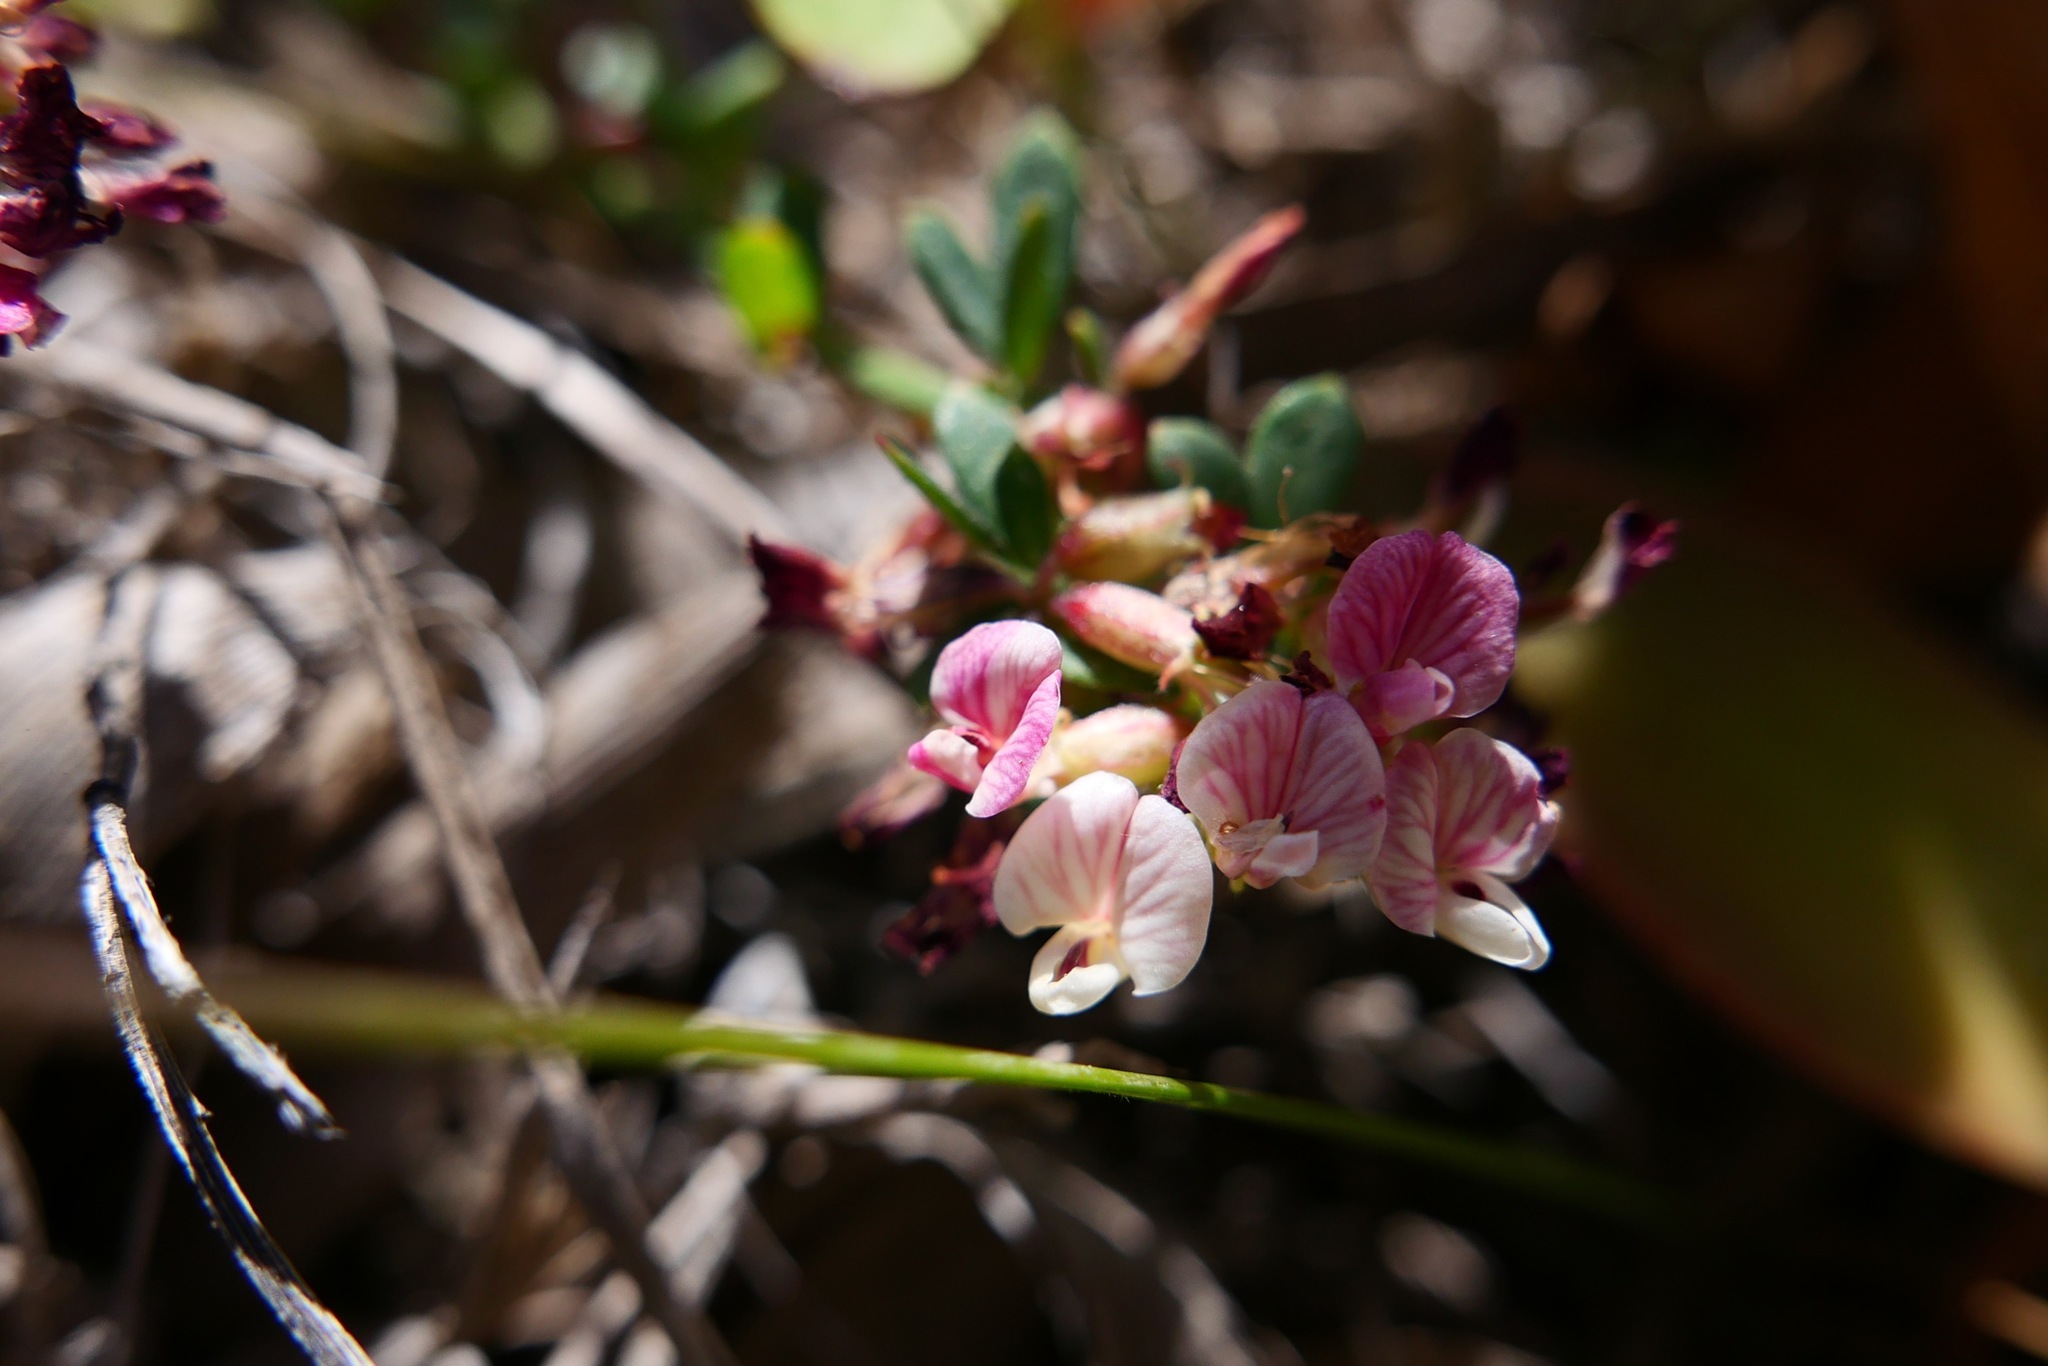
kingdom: Plantae
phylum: Tracheophyta
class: Magnoliopsida
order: Fabales
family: Fabaceae
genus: Acmispon
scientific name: Acmispon cytisoides
